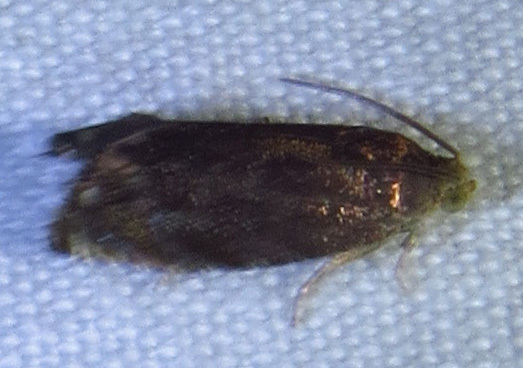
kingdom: Animalia
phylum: Arthropoda
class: Insecta
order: Lepidoptera
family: Tortricidae
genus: Cydia
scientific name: Cydia caryana
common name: Hickory shuckworm moth
